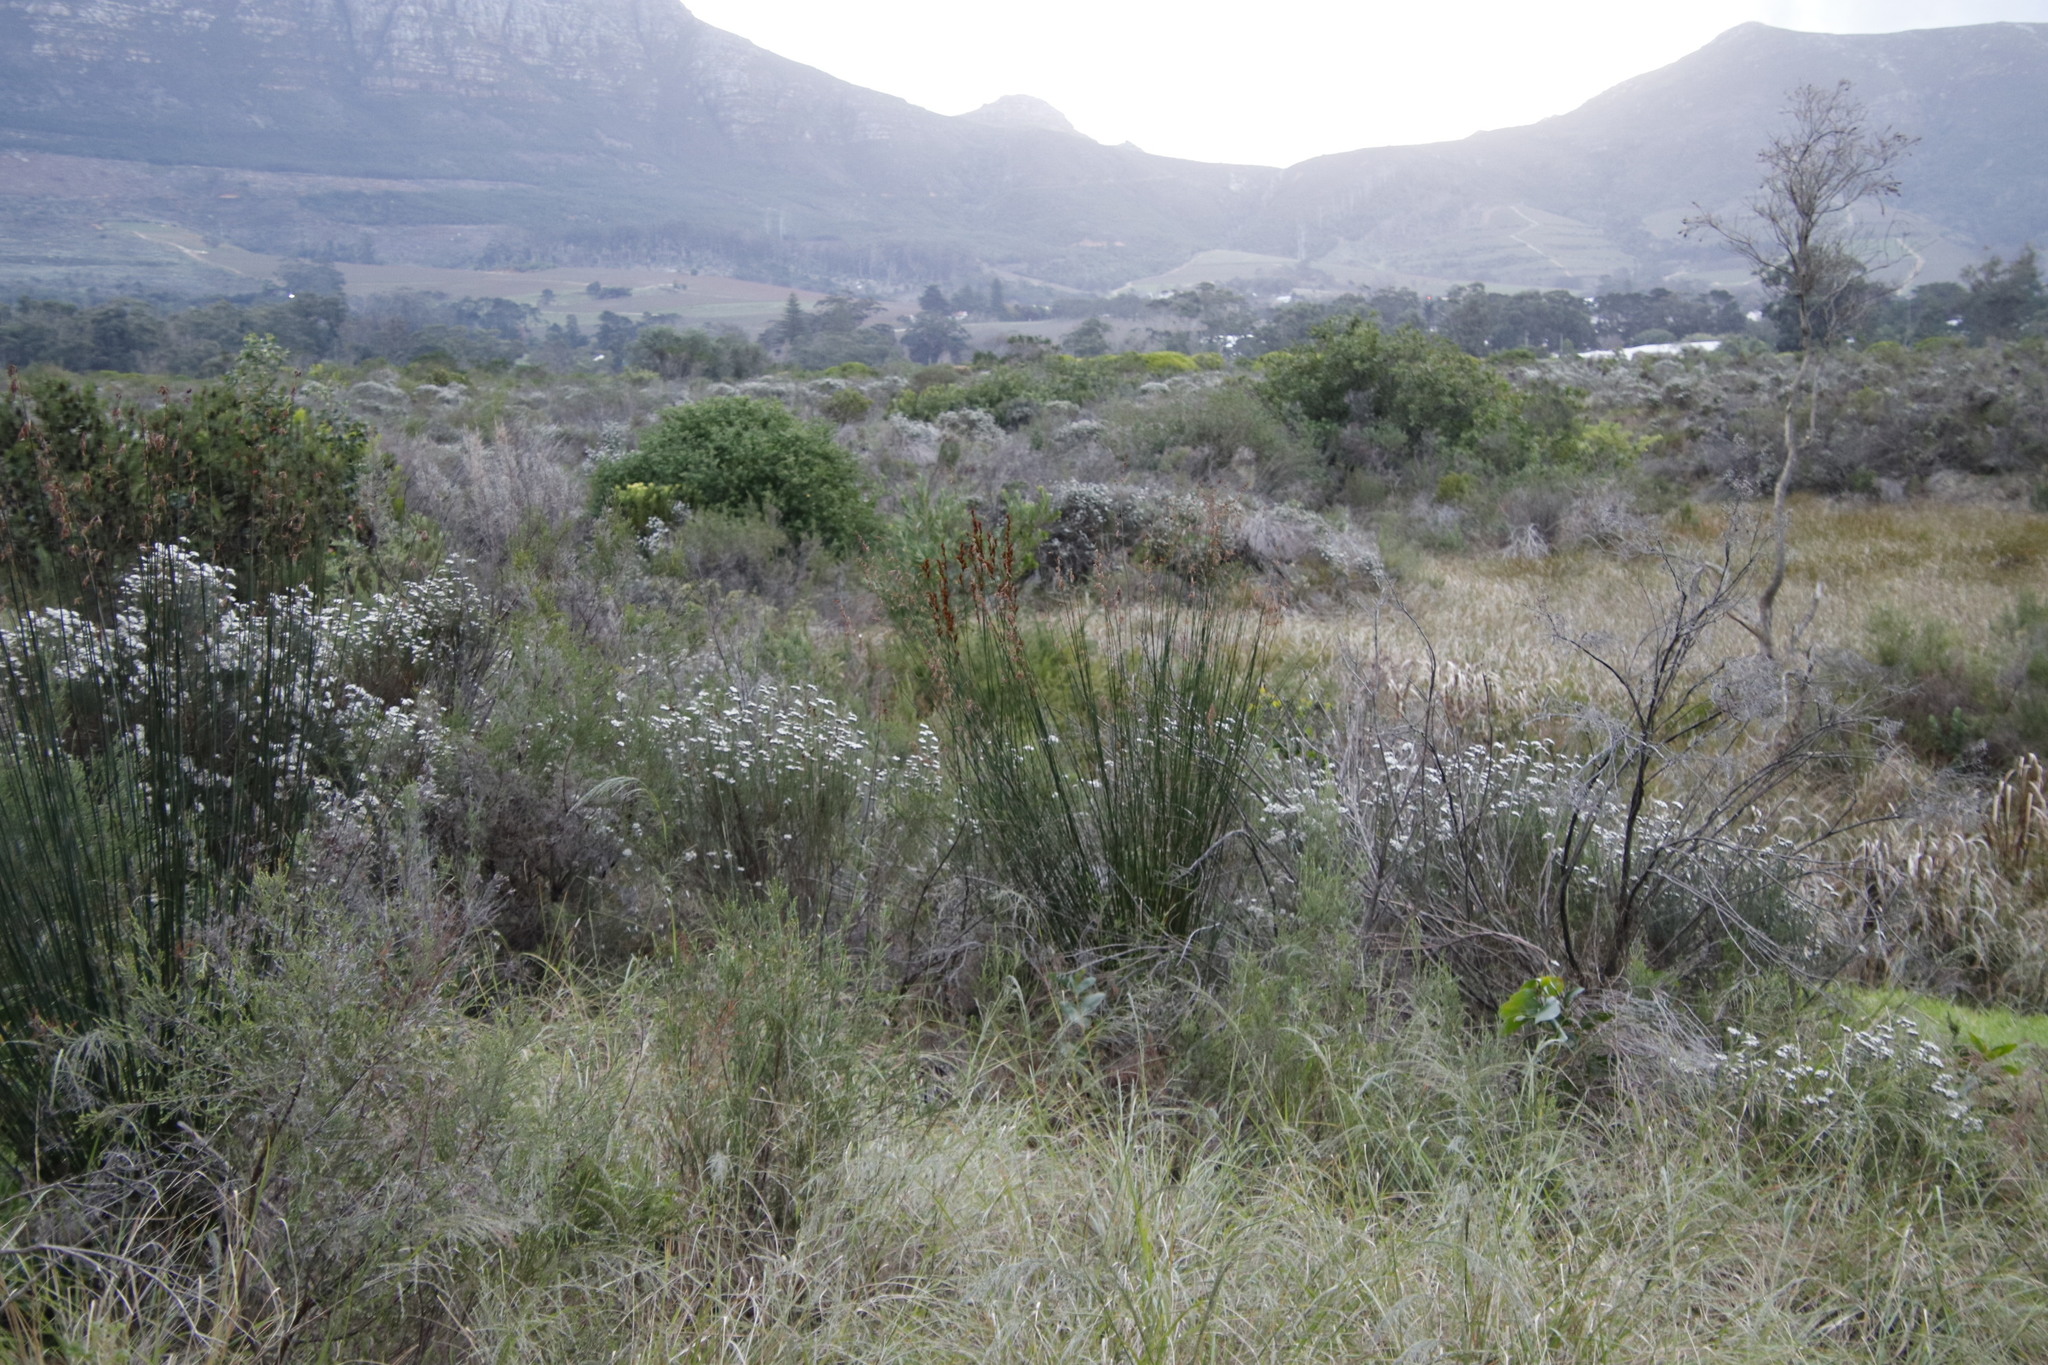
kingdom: Plantae
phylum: Tracheophyta
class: Liliopsida
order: Poales
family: Restionaceae
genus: Thamnochortus
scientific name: Thamnochortus insignis
